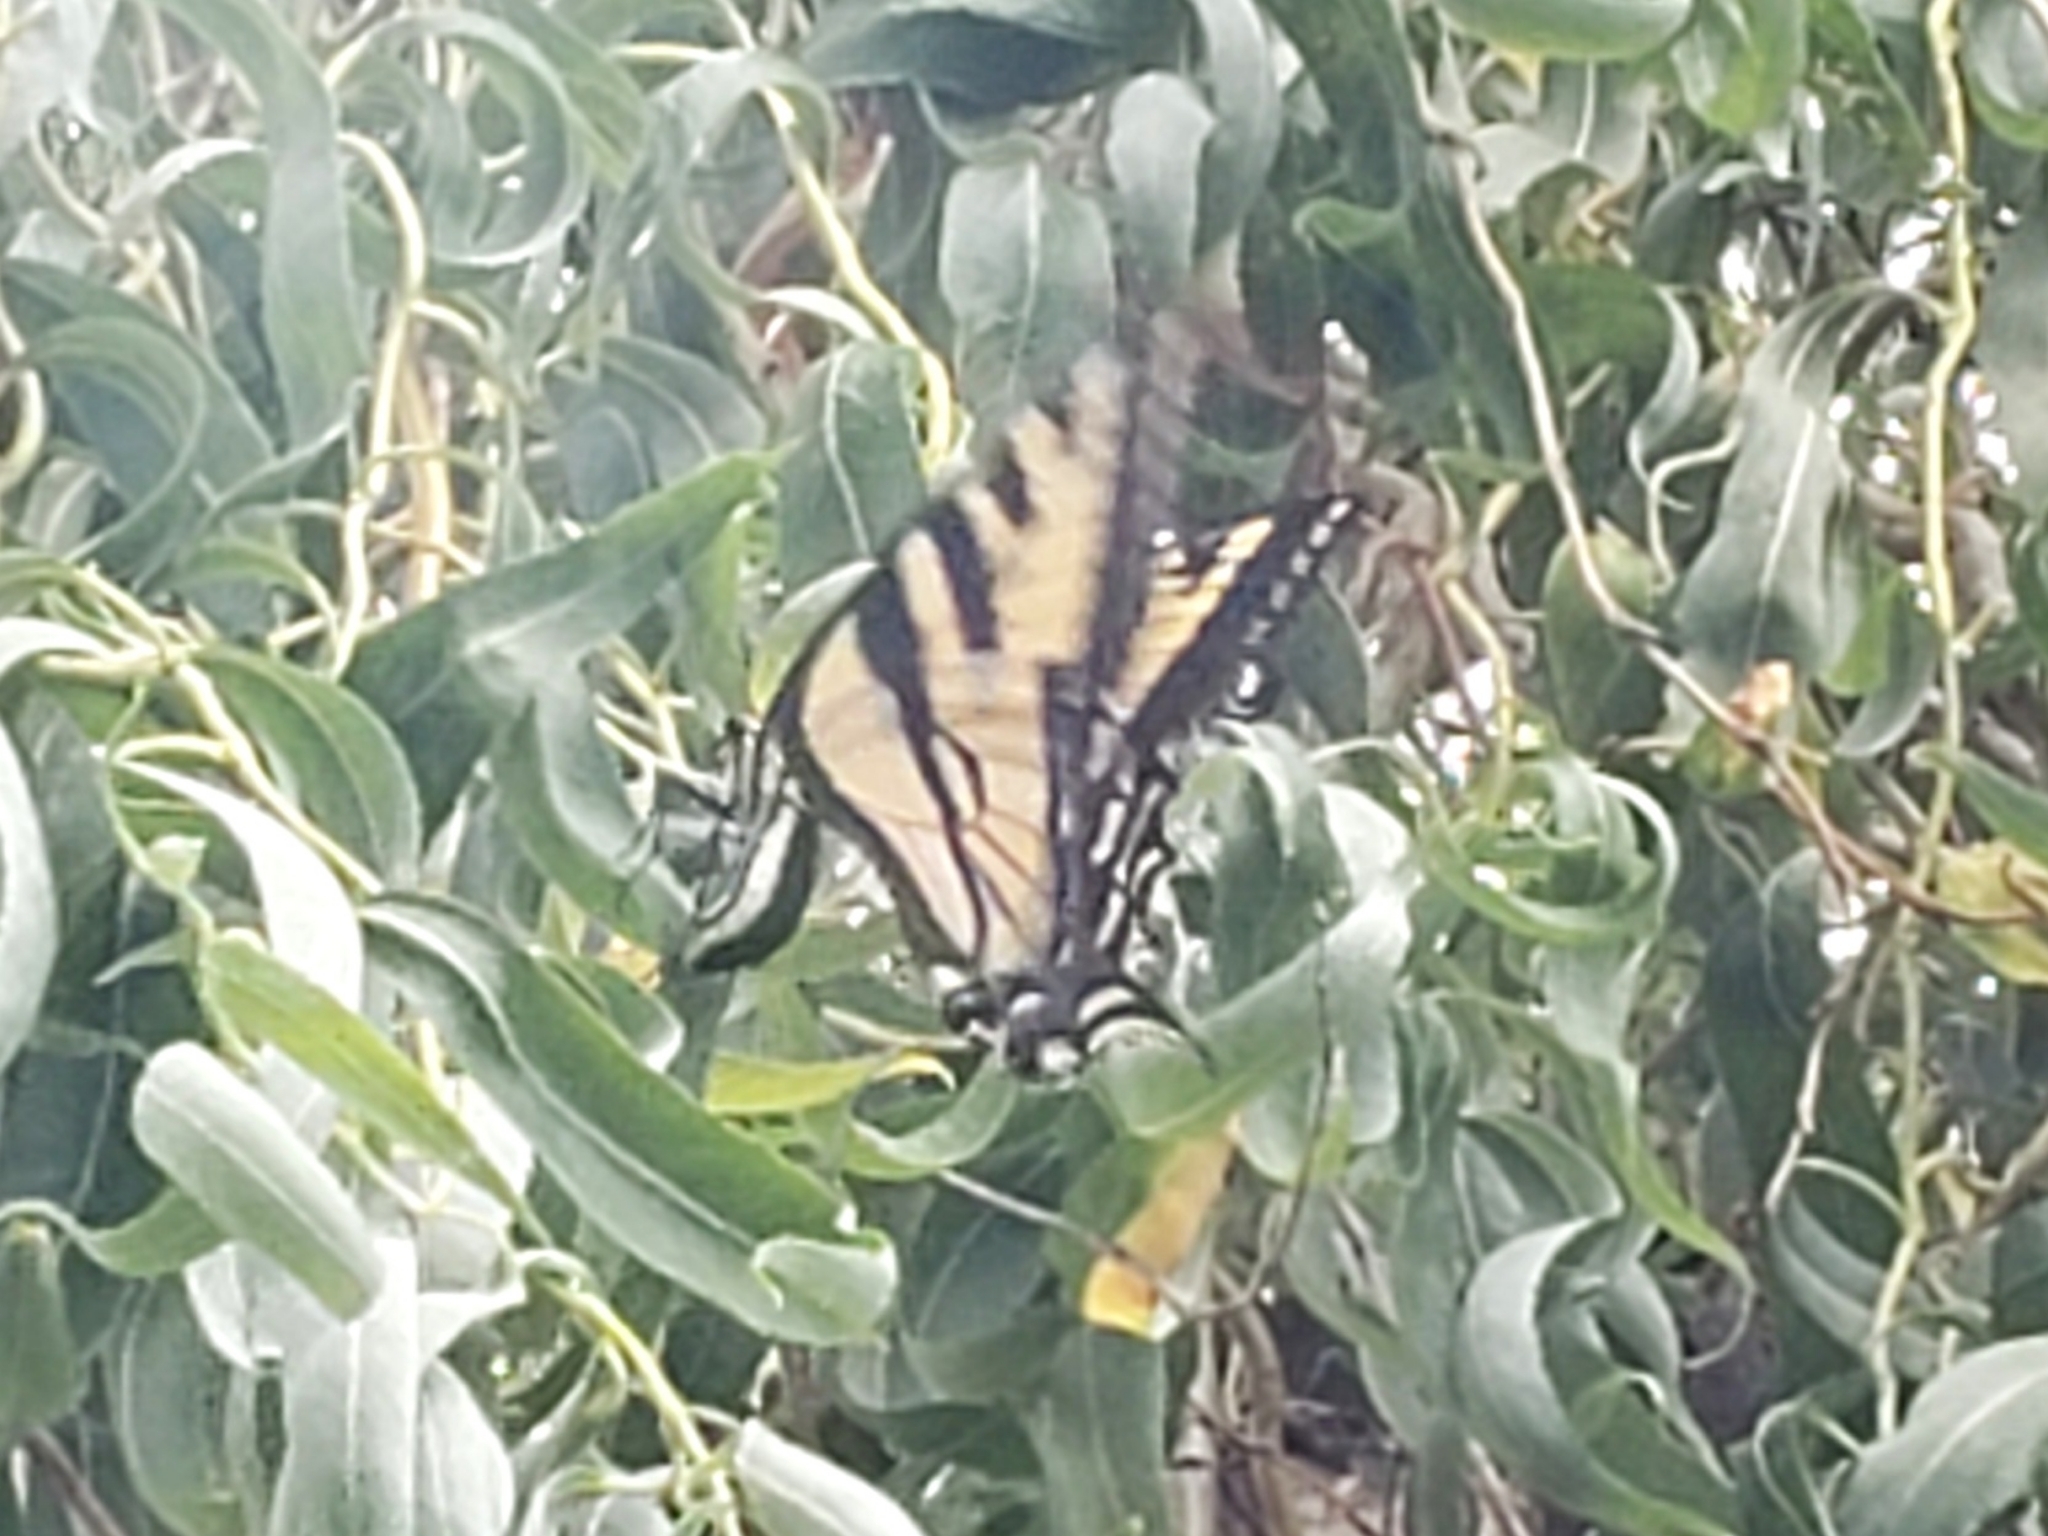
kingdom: Animalia
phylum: Arthropoda
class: Insecta
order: Lepidoptera
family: Papilionidae
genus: Papilio
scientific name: Papilio rutulus
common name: Western tiger swallowtail
